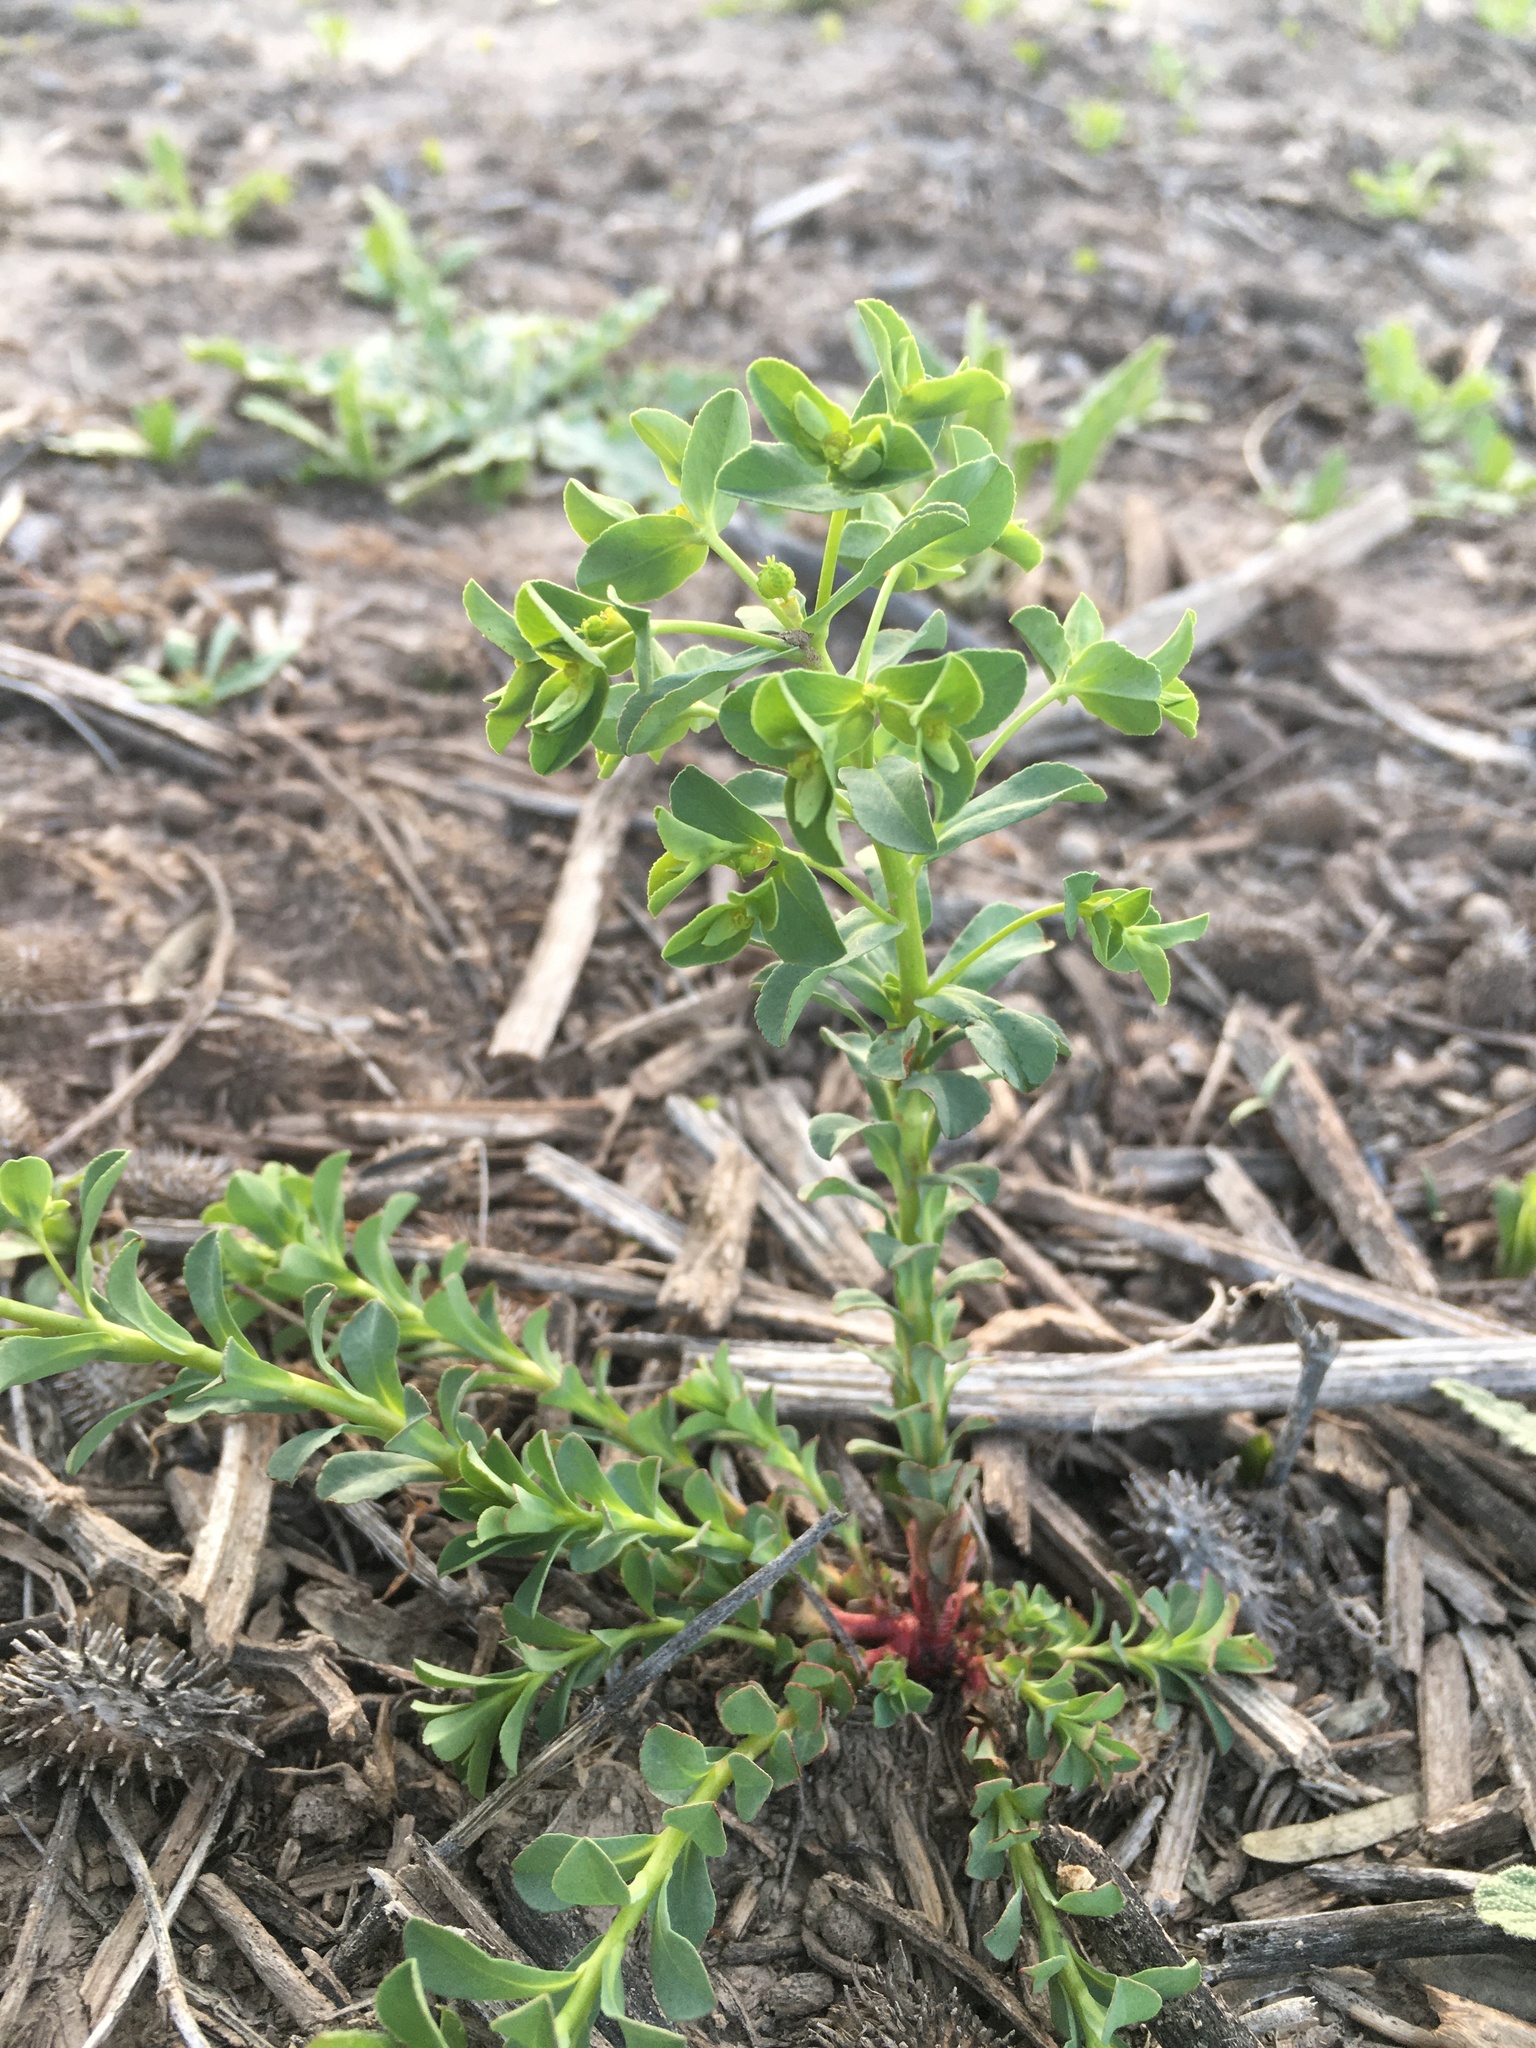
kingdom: Plantae
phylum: Tracheophyta
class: Magnoliopsida
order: Malpighiales
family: Euphorbiaceae
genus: Euphorbia
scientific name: Euphorbia spathulata
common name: Blunt spurge
